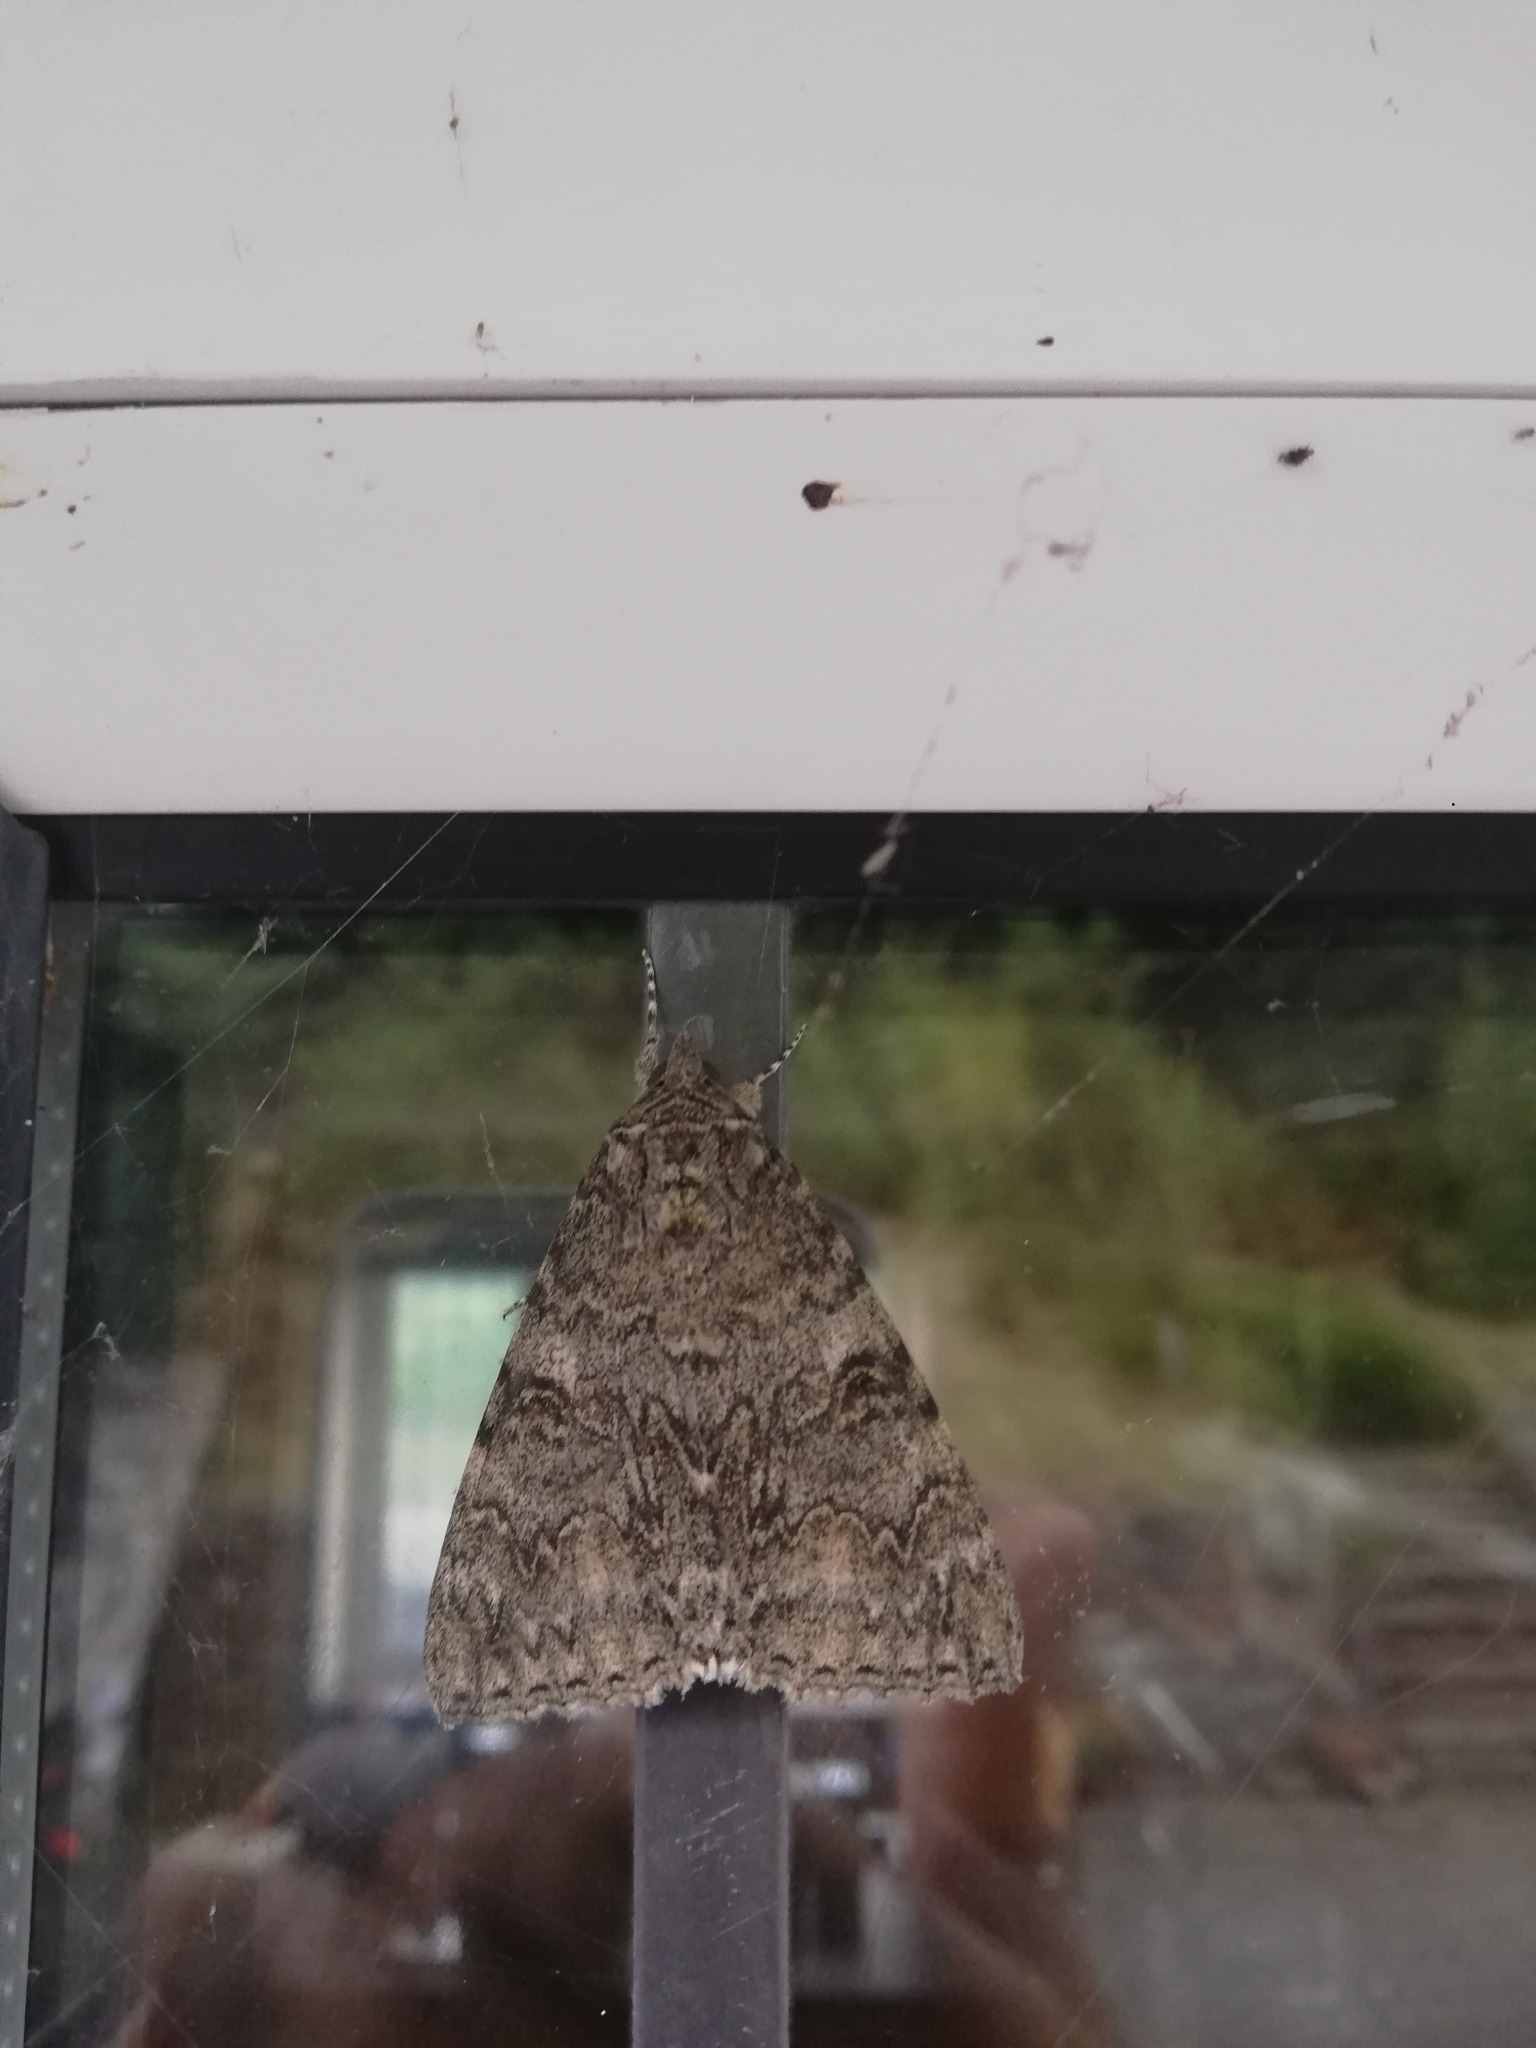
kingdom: Animalia
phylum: Arthropoda
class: Insecta
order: Lepidoptera
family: Erebidae
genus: Catocala
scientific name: Catocala nupta
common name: Red underwing
